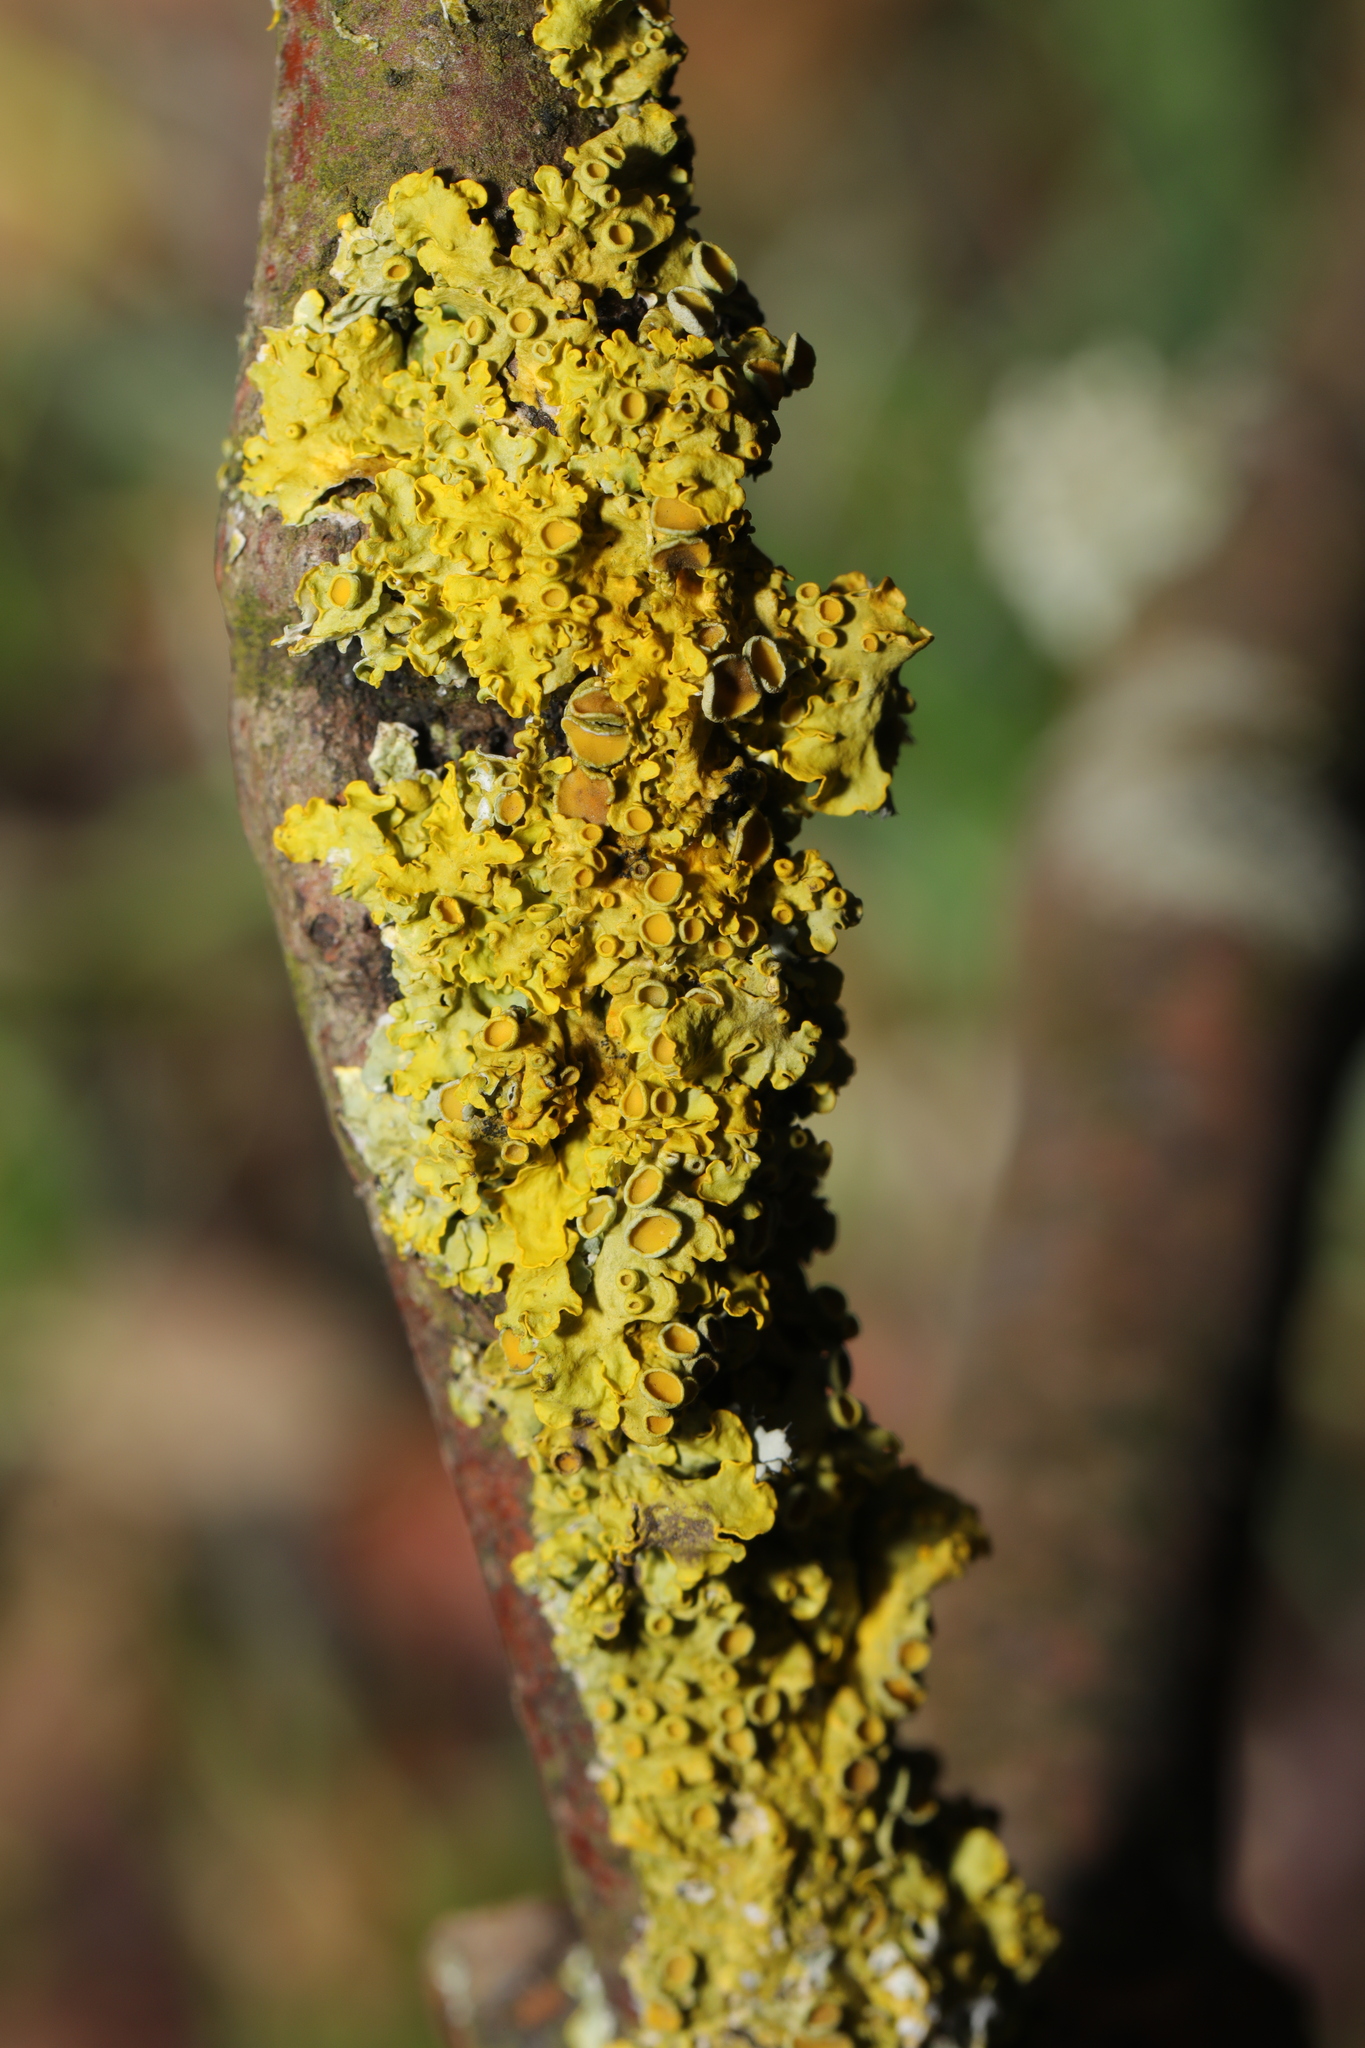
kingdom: Fungi
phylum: Ascomycota
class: Lecanoromycetes
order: Teloschistales
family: Teloschistaceae
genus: Xanthoria
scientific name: Xanthoria parietina
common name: Common orange lichen
